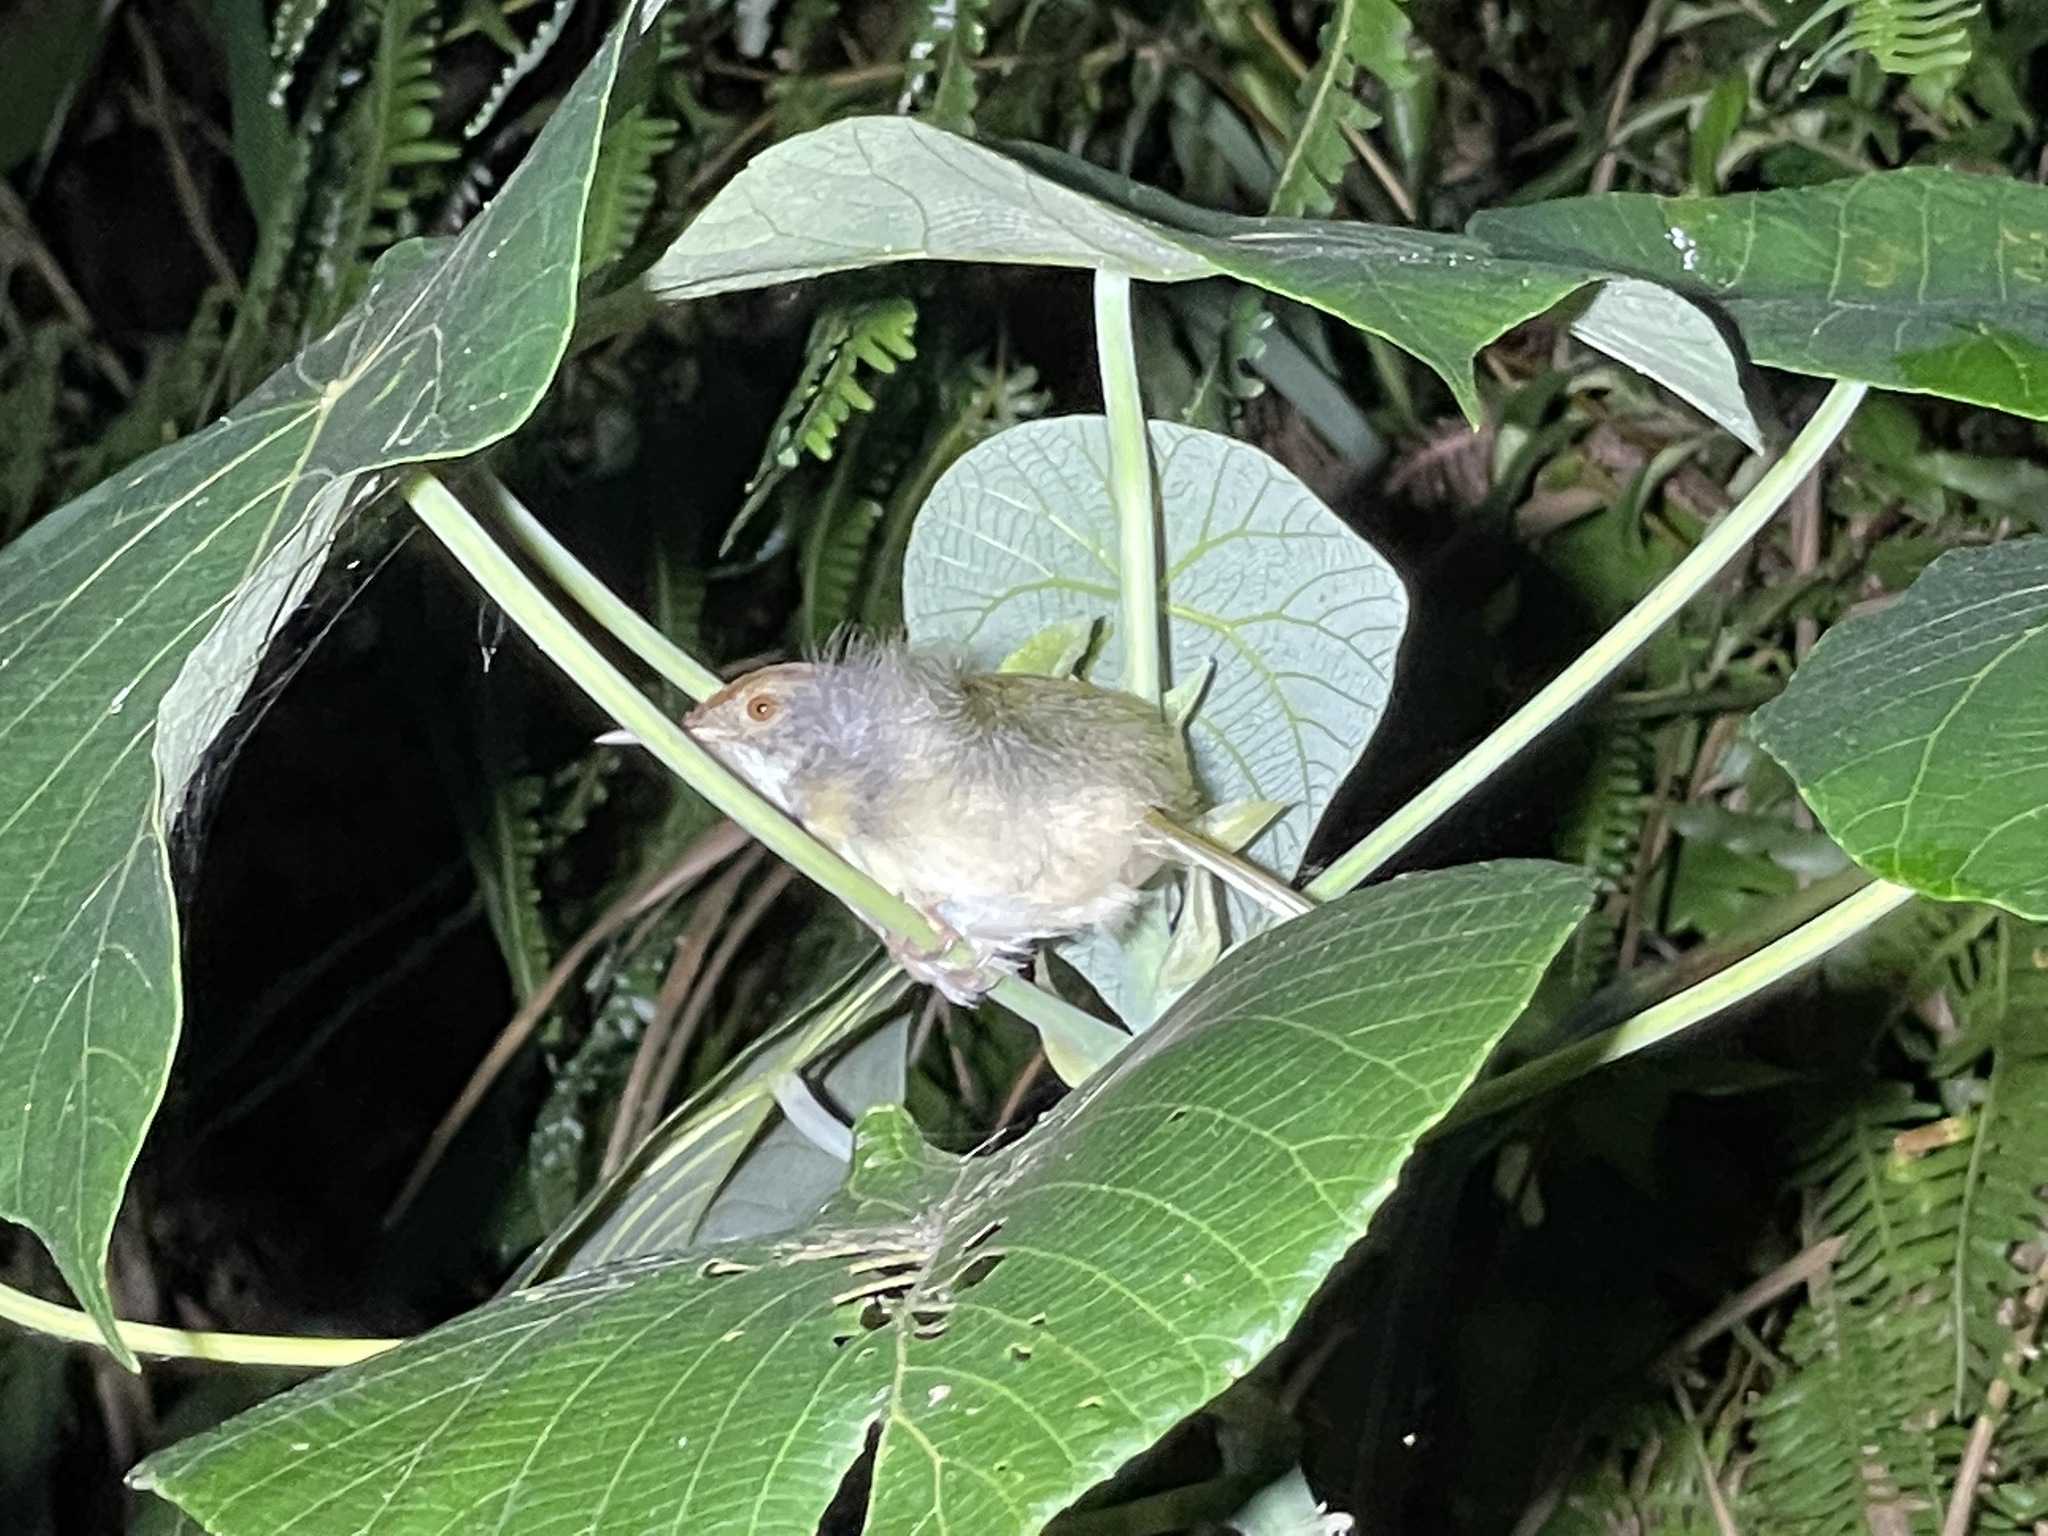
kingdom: Animalia
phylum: Chordata
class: Aves
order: Passeriformes
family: Cisticolidae
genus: Orthotomus
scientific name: Orthotomus sutorius
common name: Common tailorbird
